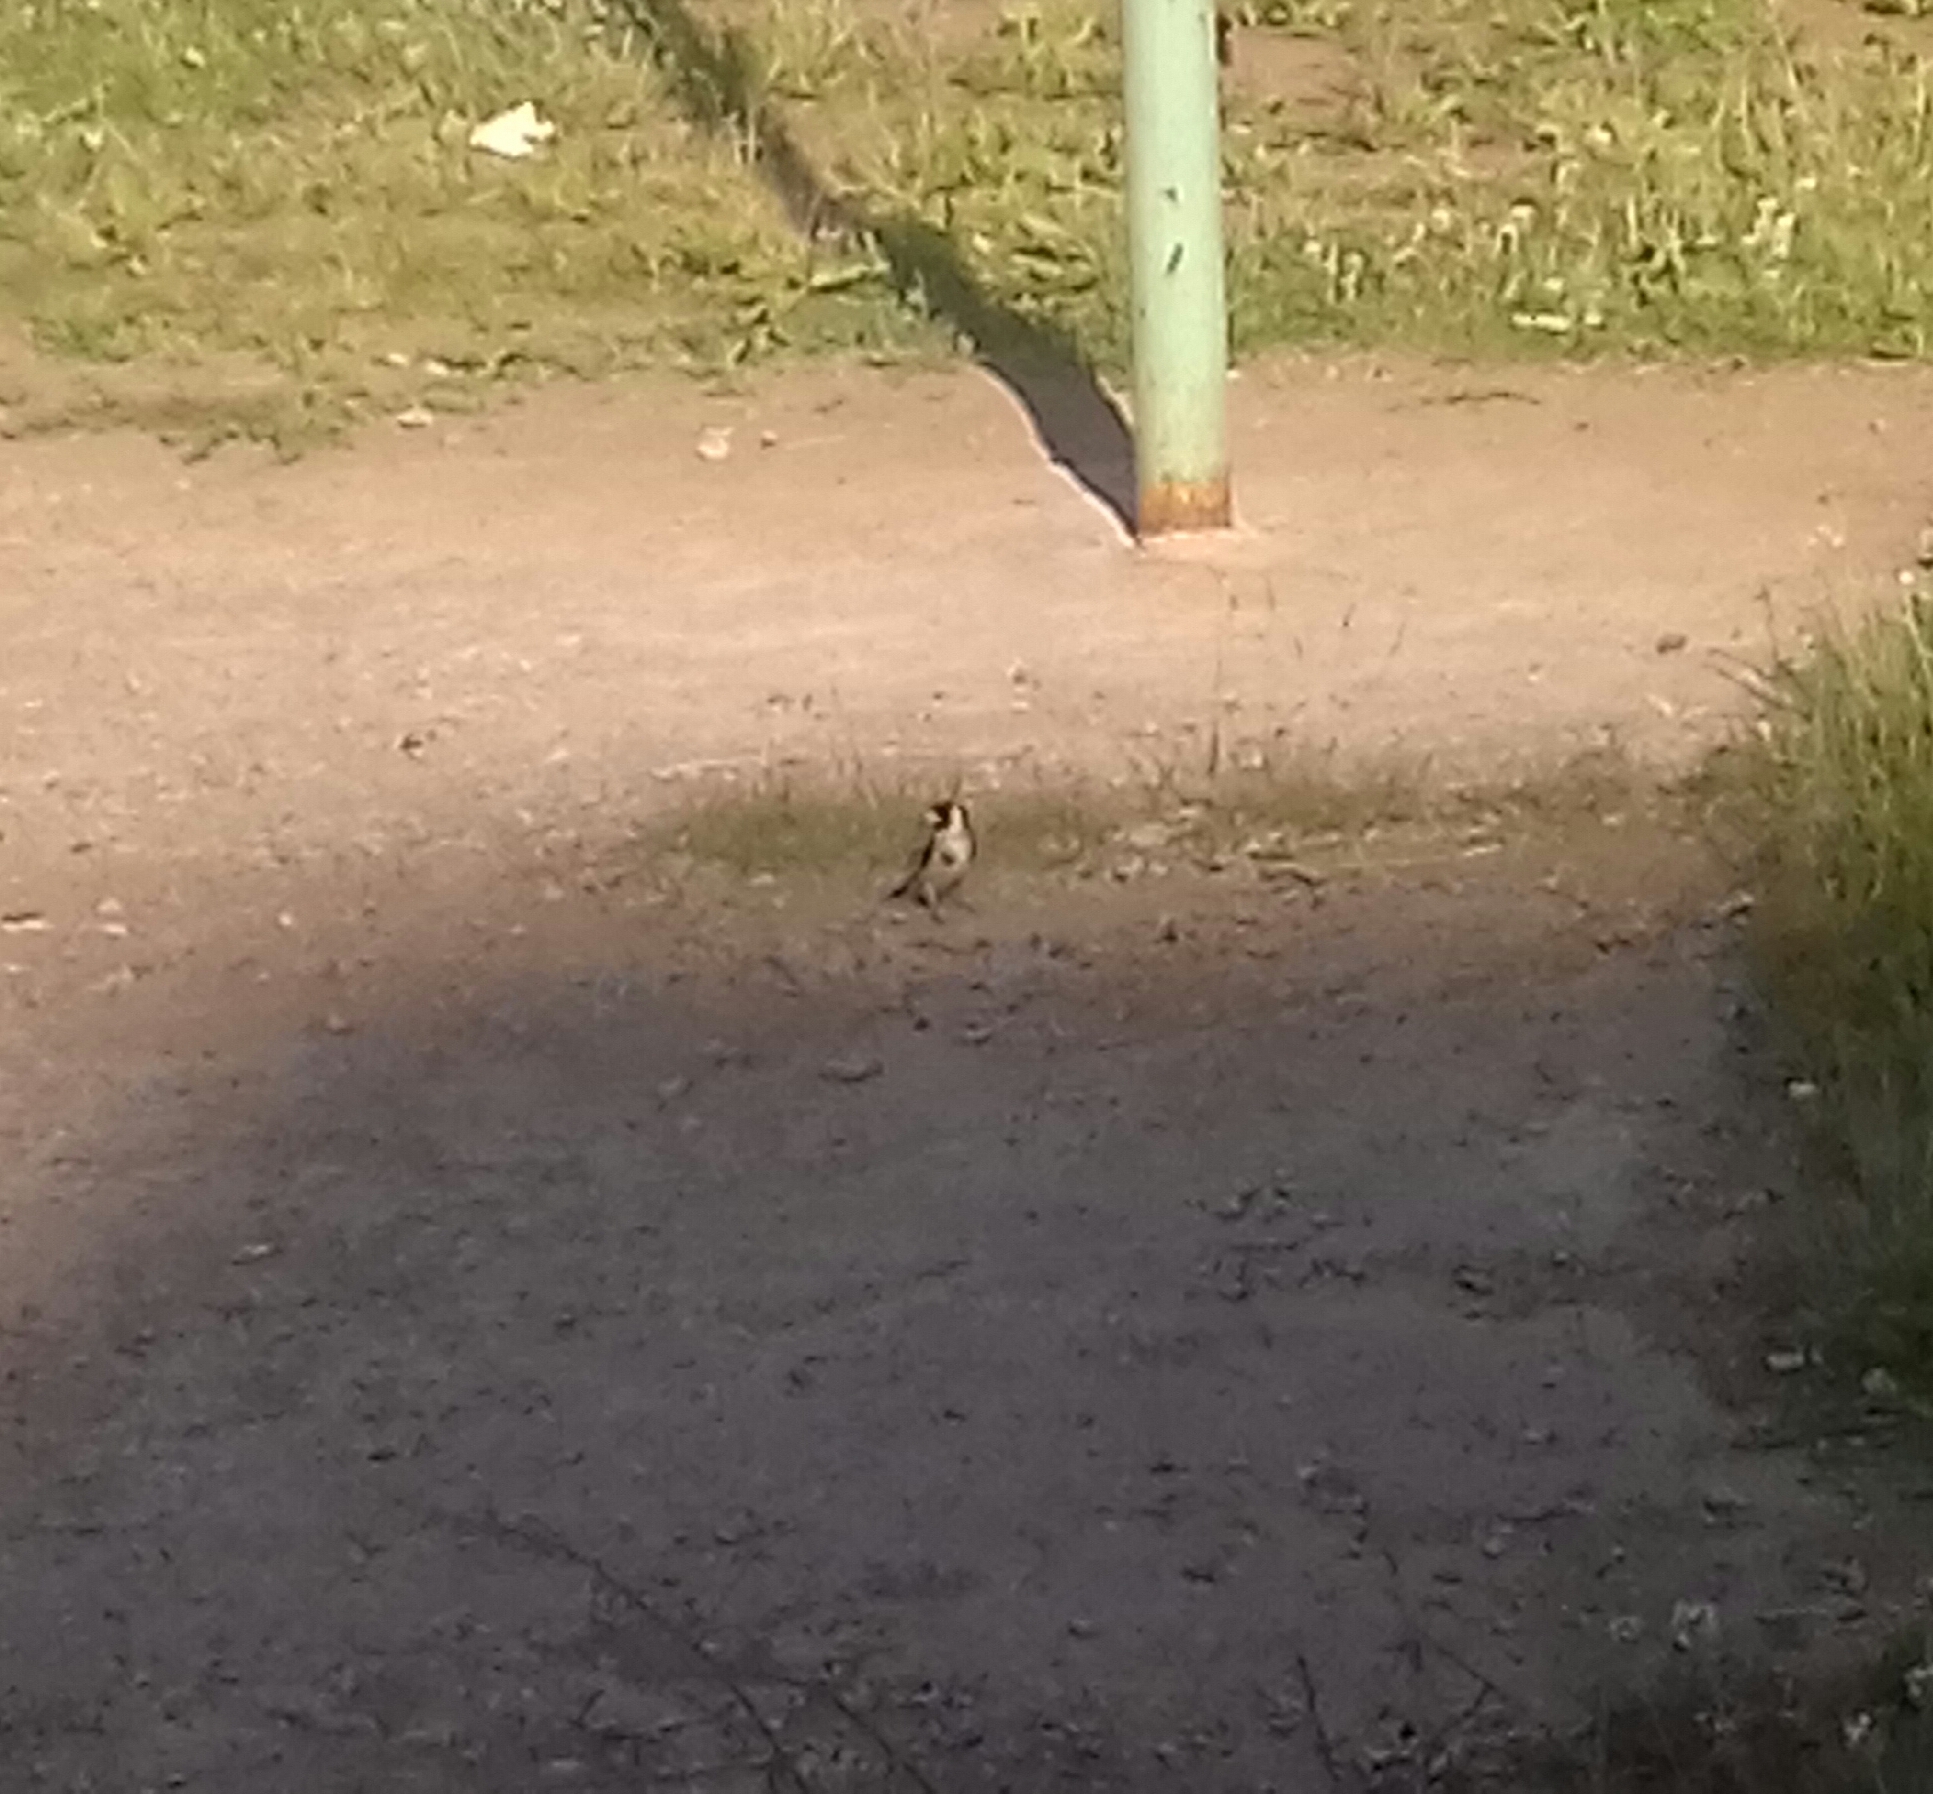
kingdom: Animalia
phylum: Chordata
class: Aves
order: Passeriformes
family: Fringillidae
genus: Carduelis
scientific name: Carduelis carduelis
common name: European goldfinch
